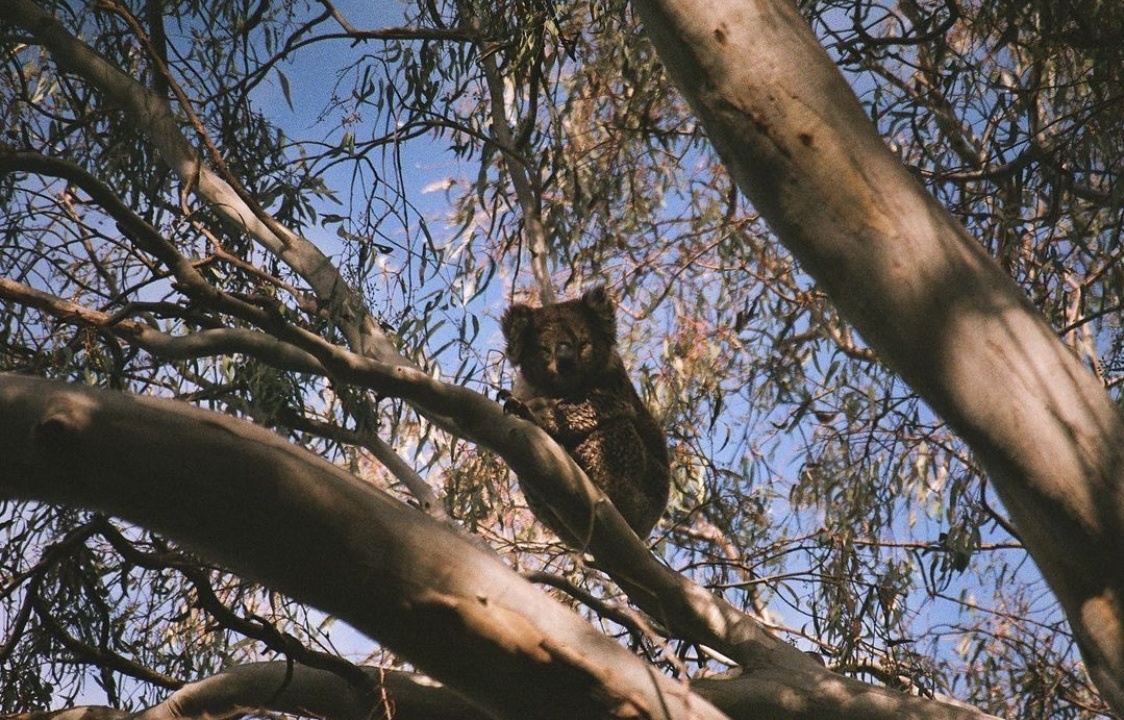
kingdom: Animalia
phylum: Chordata
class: Mammalia
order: Diprotodontia
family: Phascolarctidae
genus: Phascolarctos
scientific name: Phascolarctos cinereus
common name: Koala
